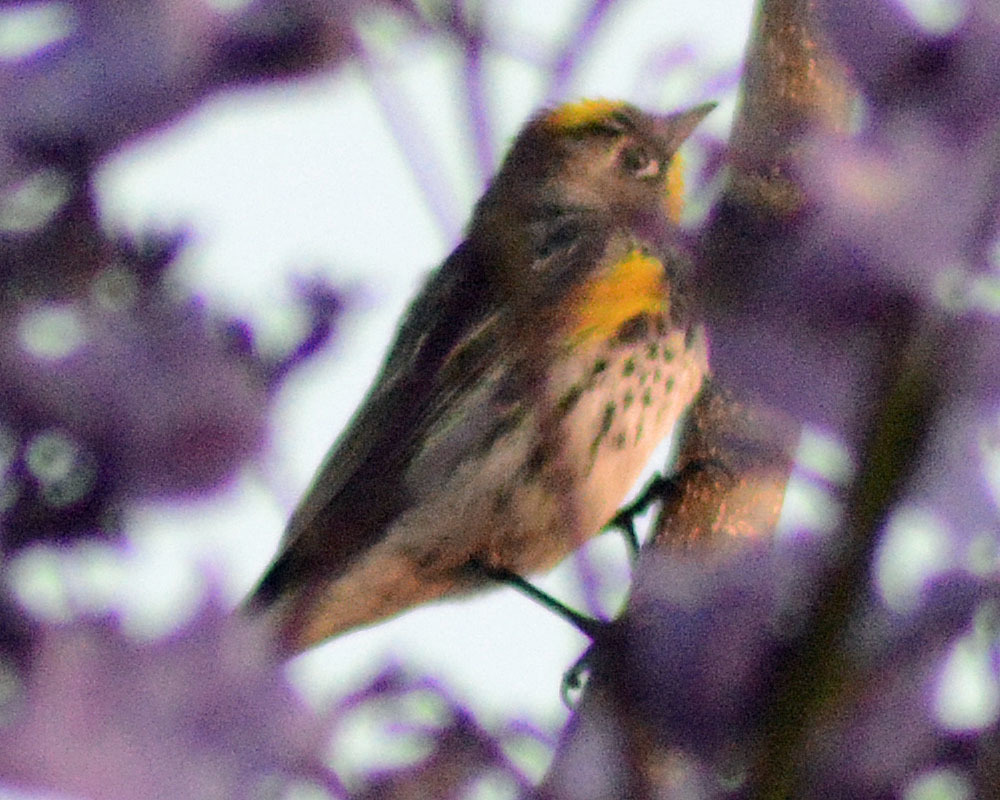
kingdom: Animalia
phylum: Chordata
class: Aves
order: Passeriformes
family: Parulidae
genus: Setophaga
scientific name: Setophaga auduboni
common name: Audubon's warbler
